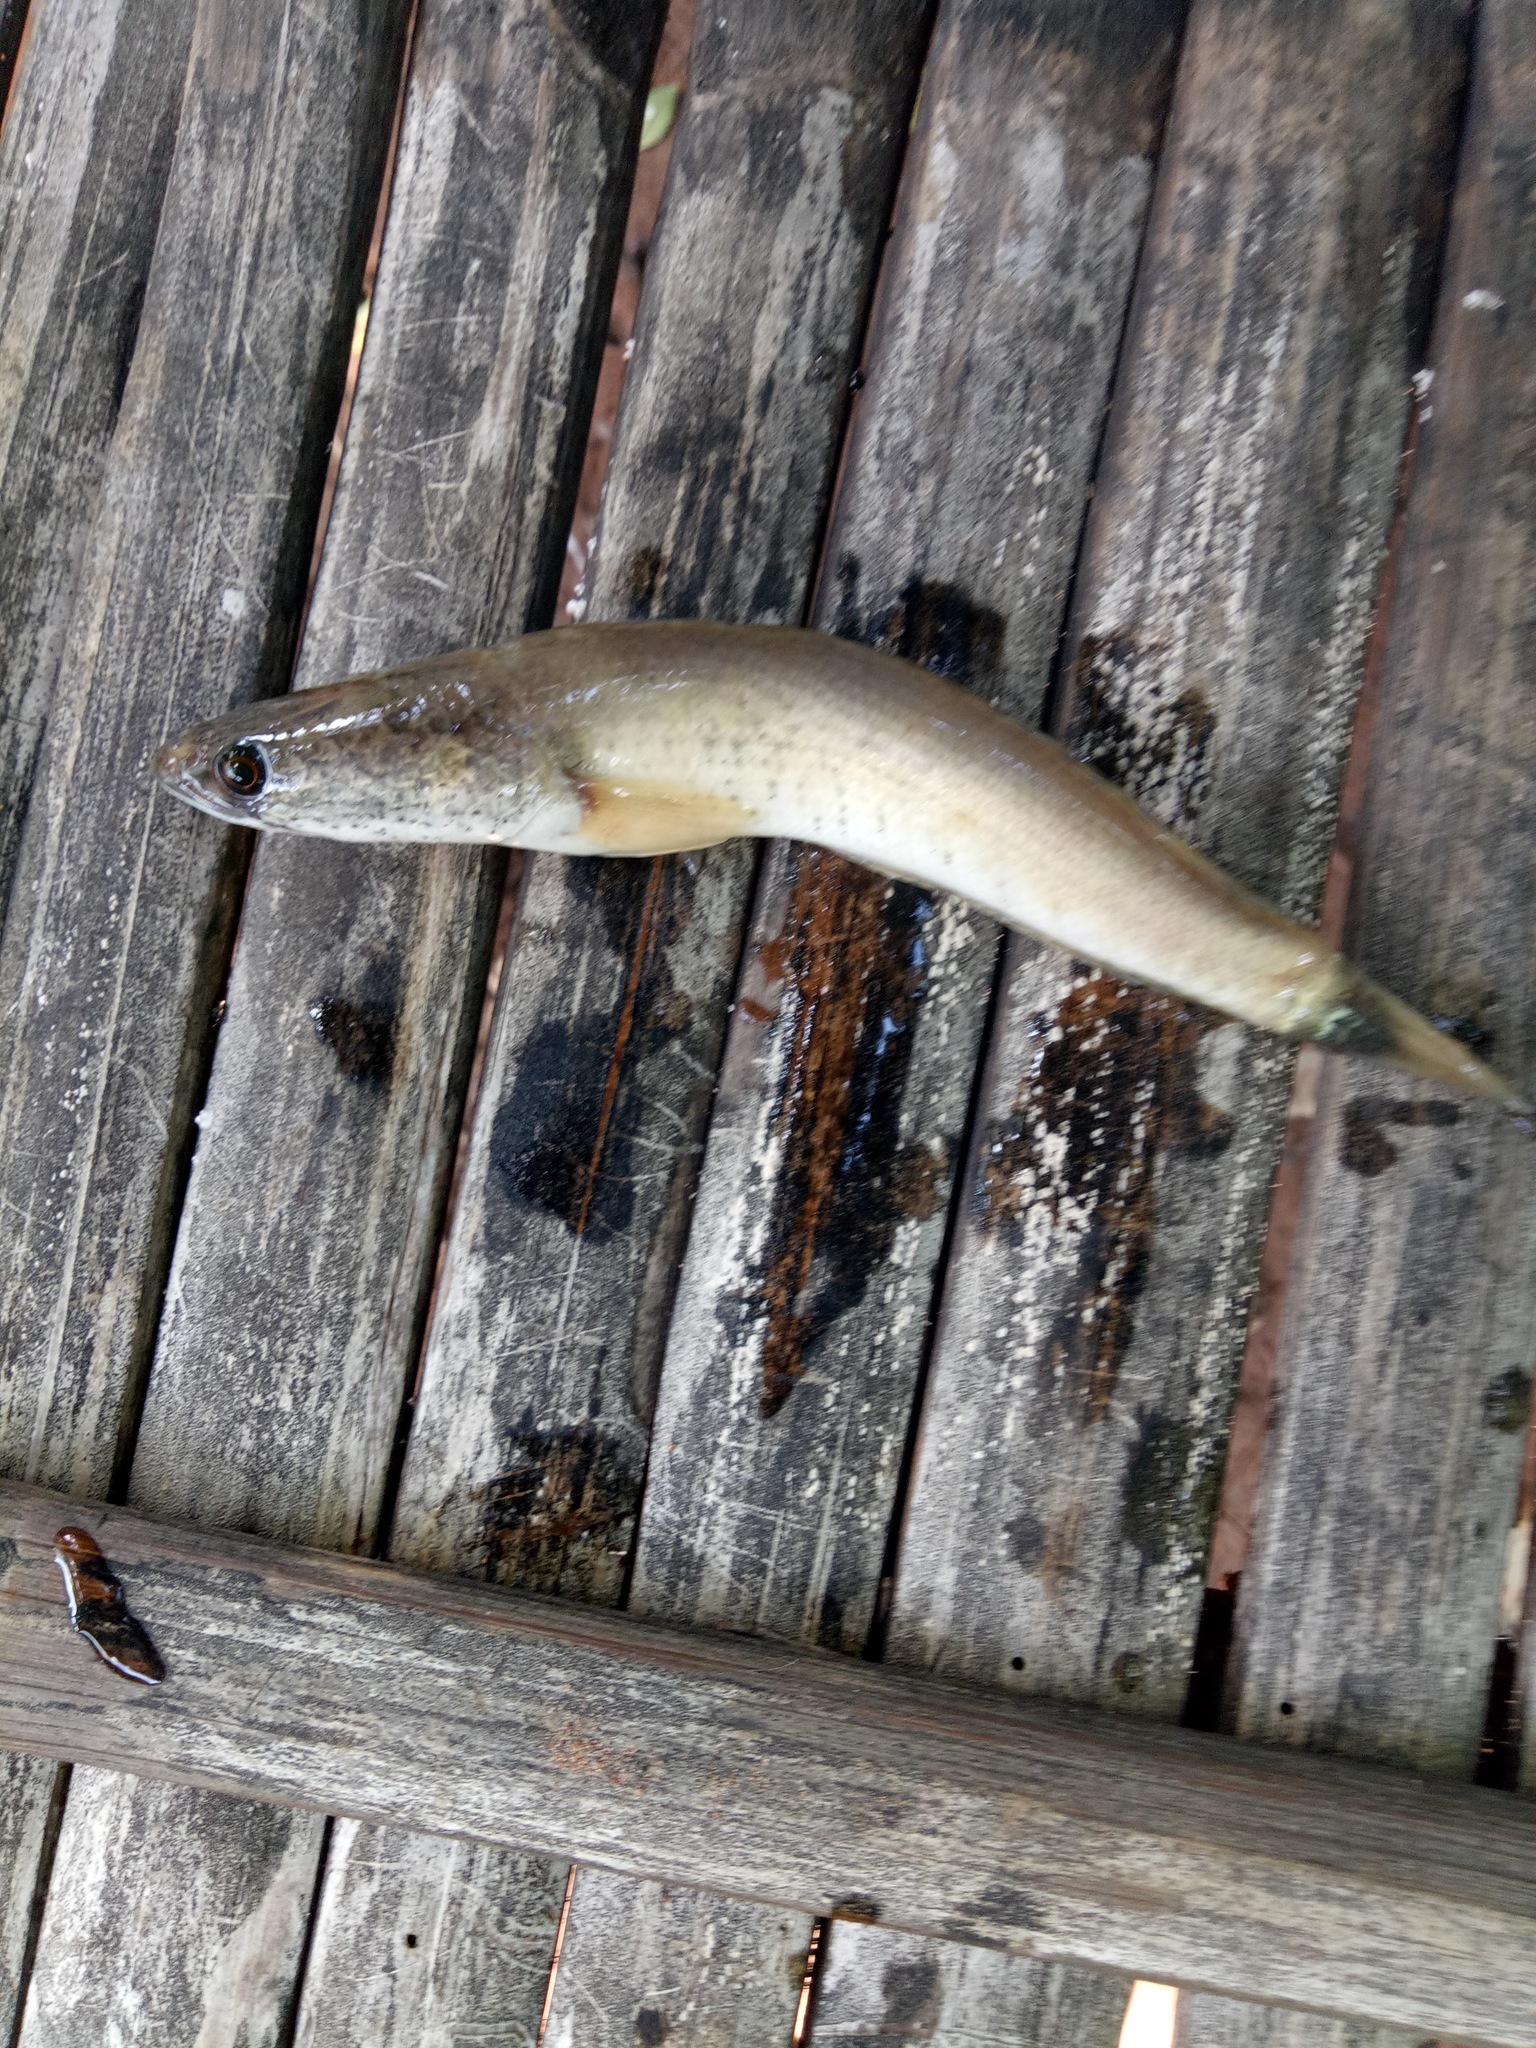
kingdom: Animalia
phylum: Chordata
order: Perciformes
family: Channidae
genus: Channa
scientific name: Channa striata
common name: Striped snakehead
